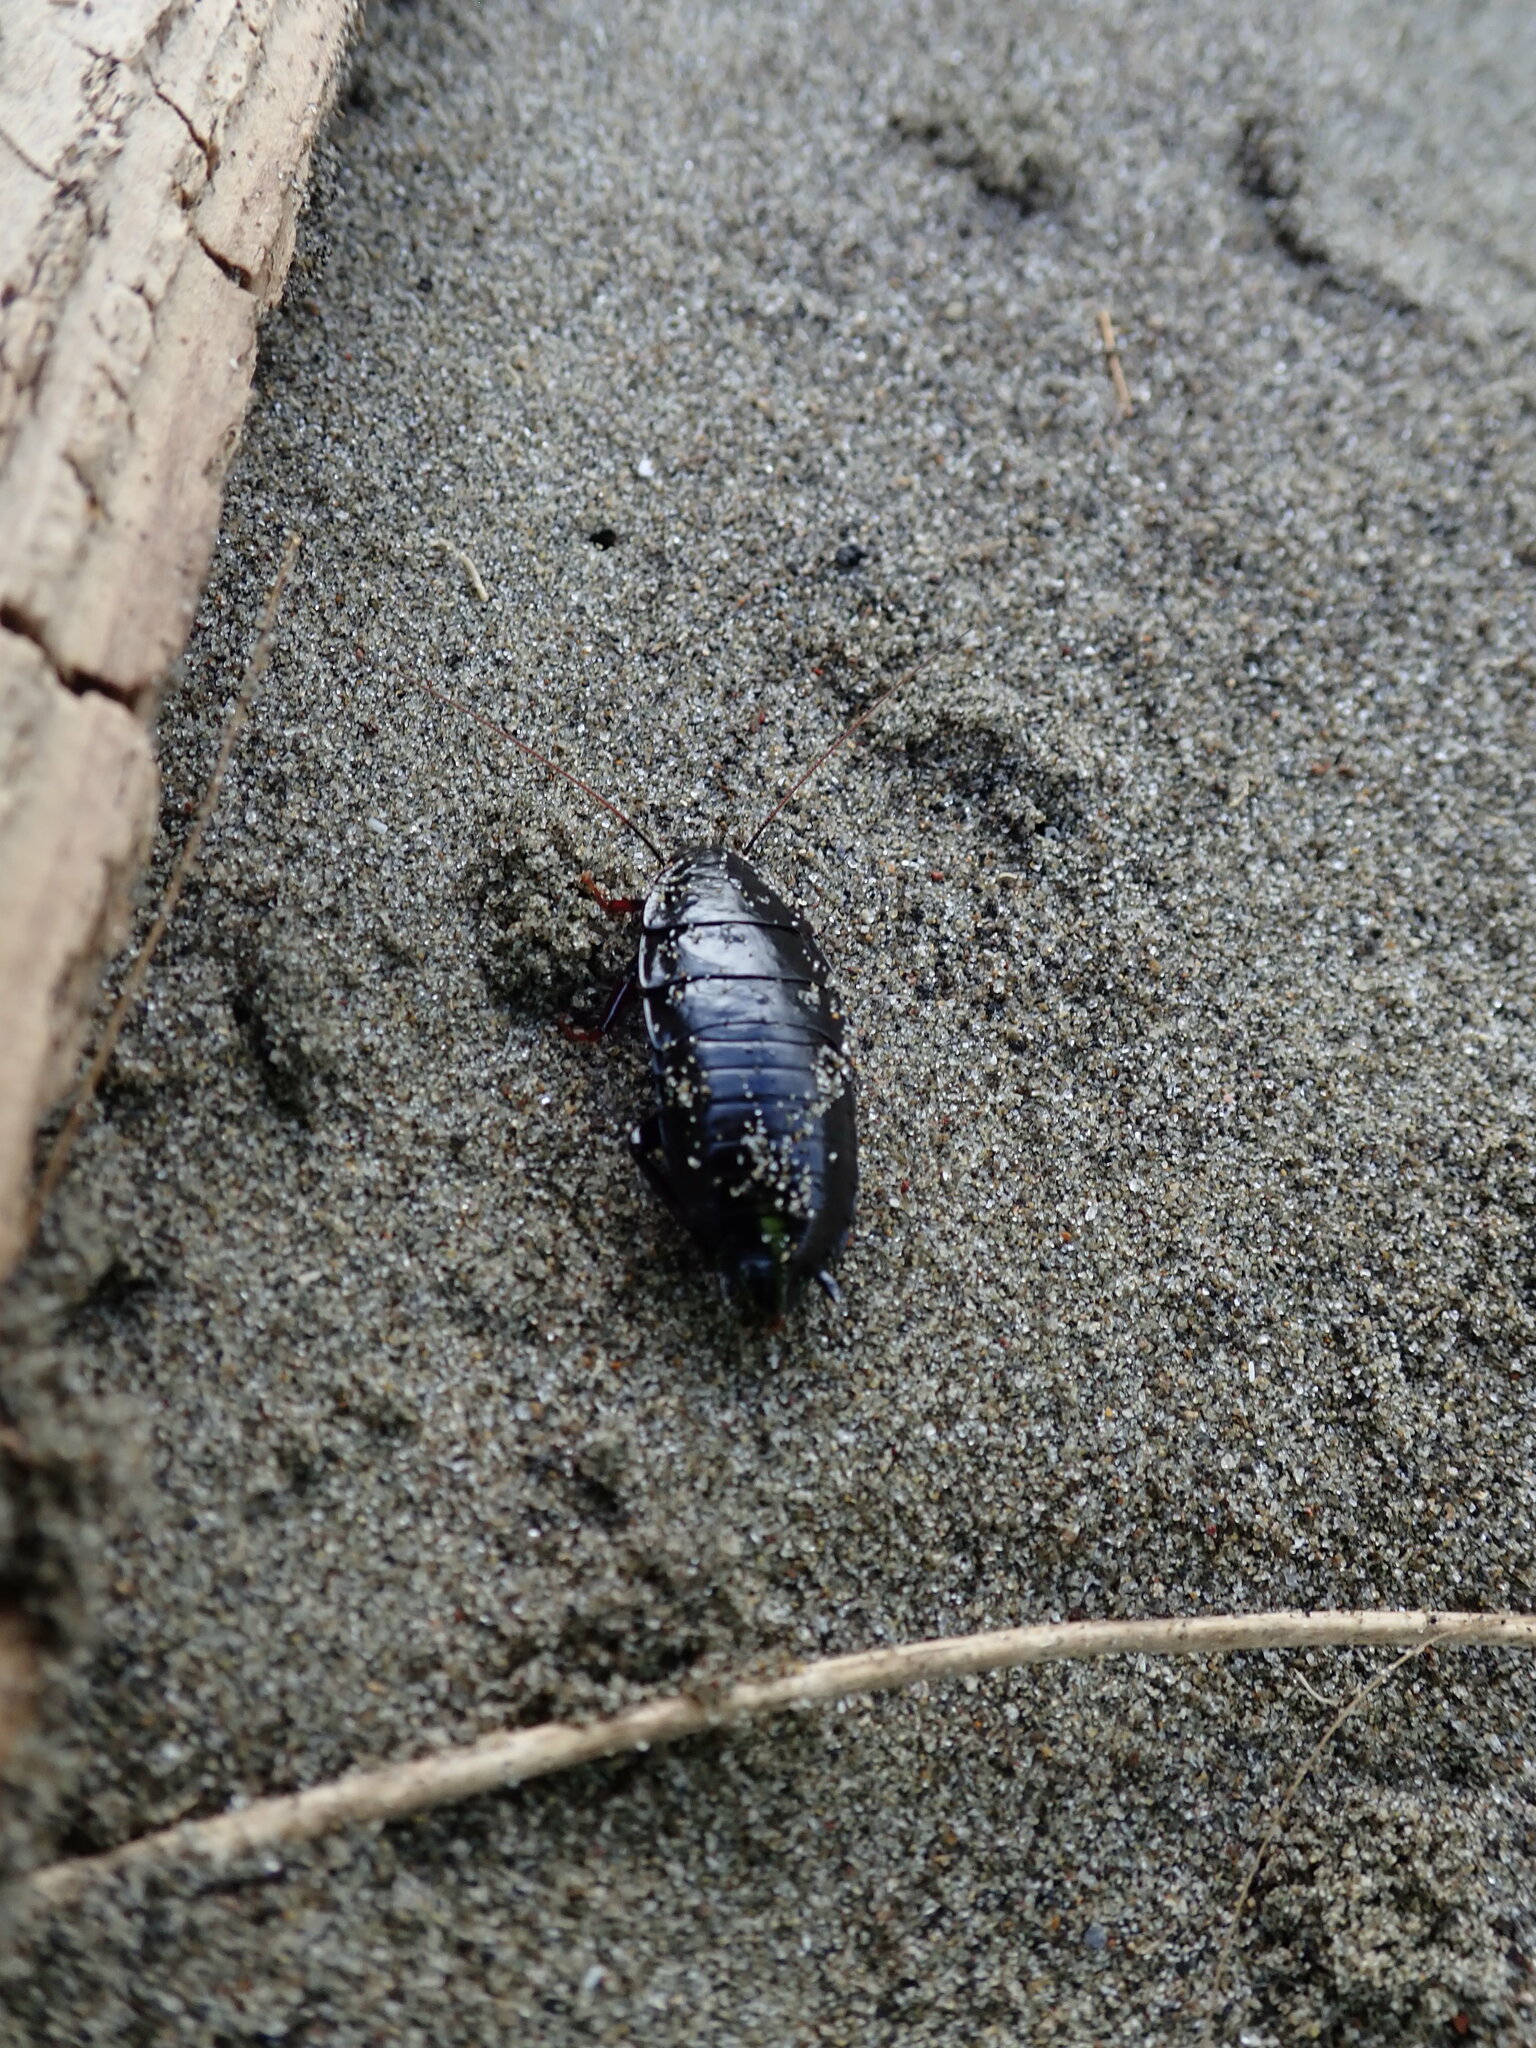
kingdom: Animalia
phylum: Arthropoda
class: Insecta
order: Blattodea
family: Blattidae
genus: Maoriblatta
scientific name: Maoriblatta novaeseelandiae
